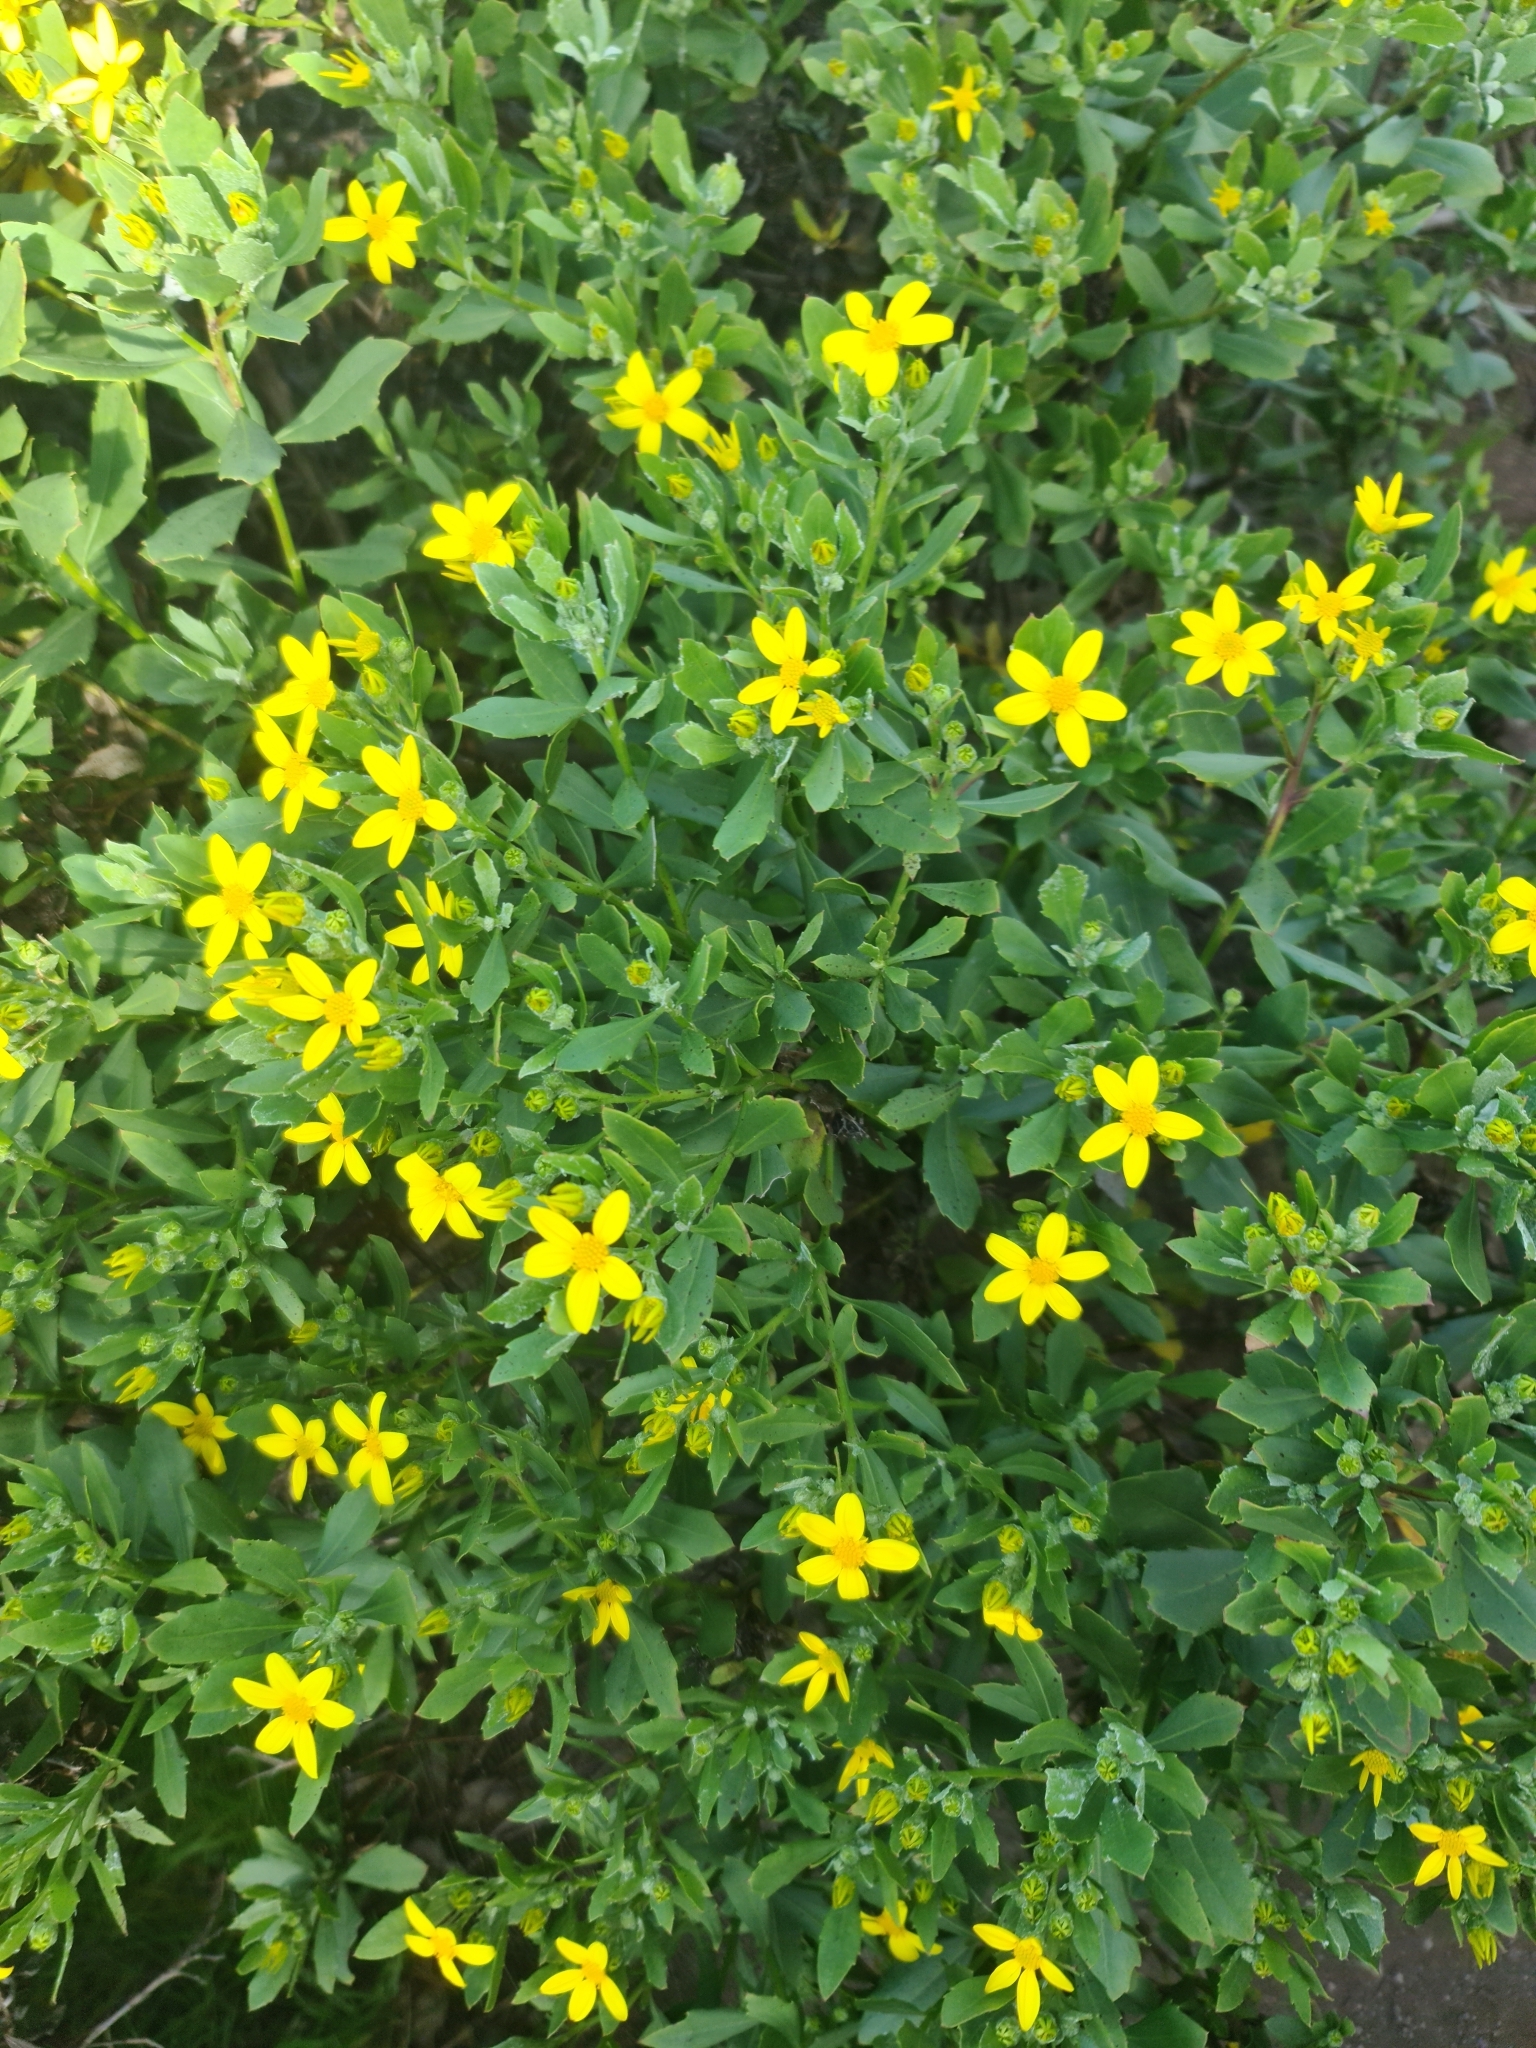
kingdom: Plantae
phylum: Tracheophyta
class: Magnoliopsida
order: Asterales
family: Asteraceae
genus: Osteospermum
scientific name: Osteospermum moniliferum
